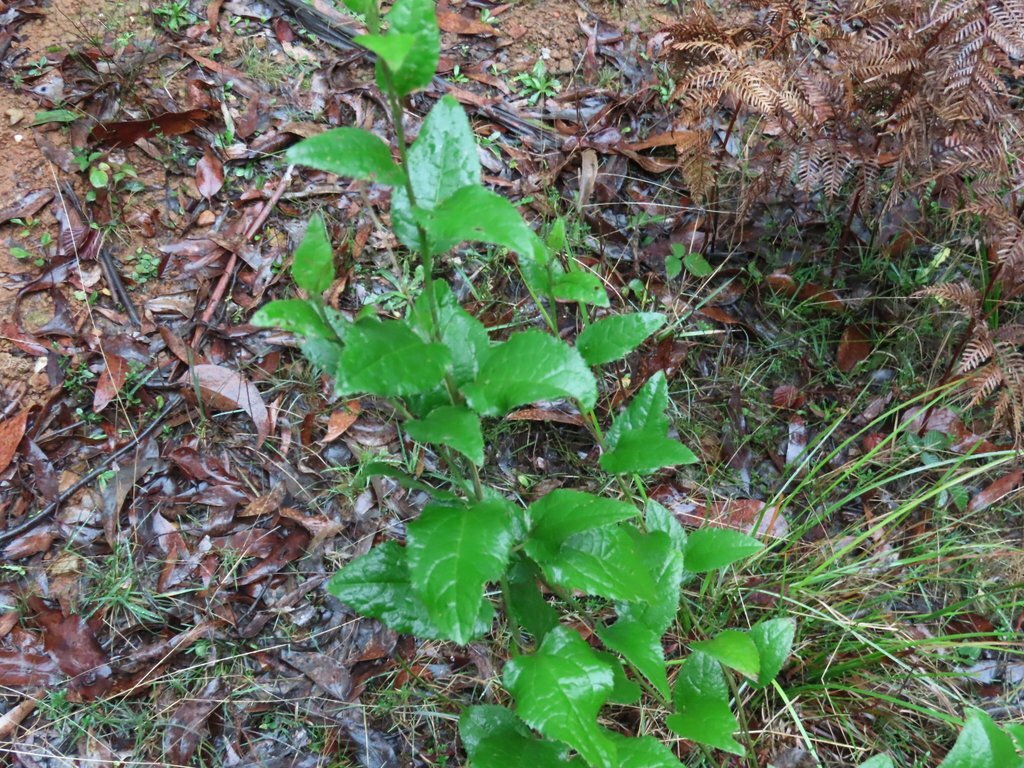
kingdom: Plantae
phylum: Tracheophyta
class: Magnoliopsida
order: Asterales
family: Goodeniaceae
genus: Goodenia
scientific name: Goodenia ovata
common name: Hop goodenia
